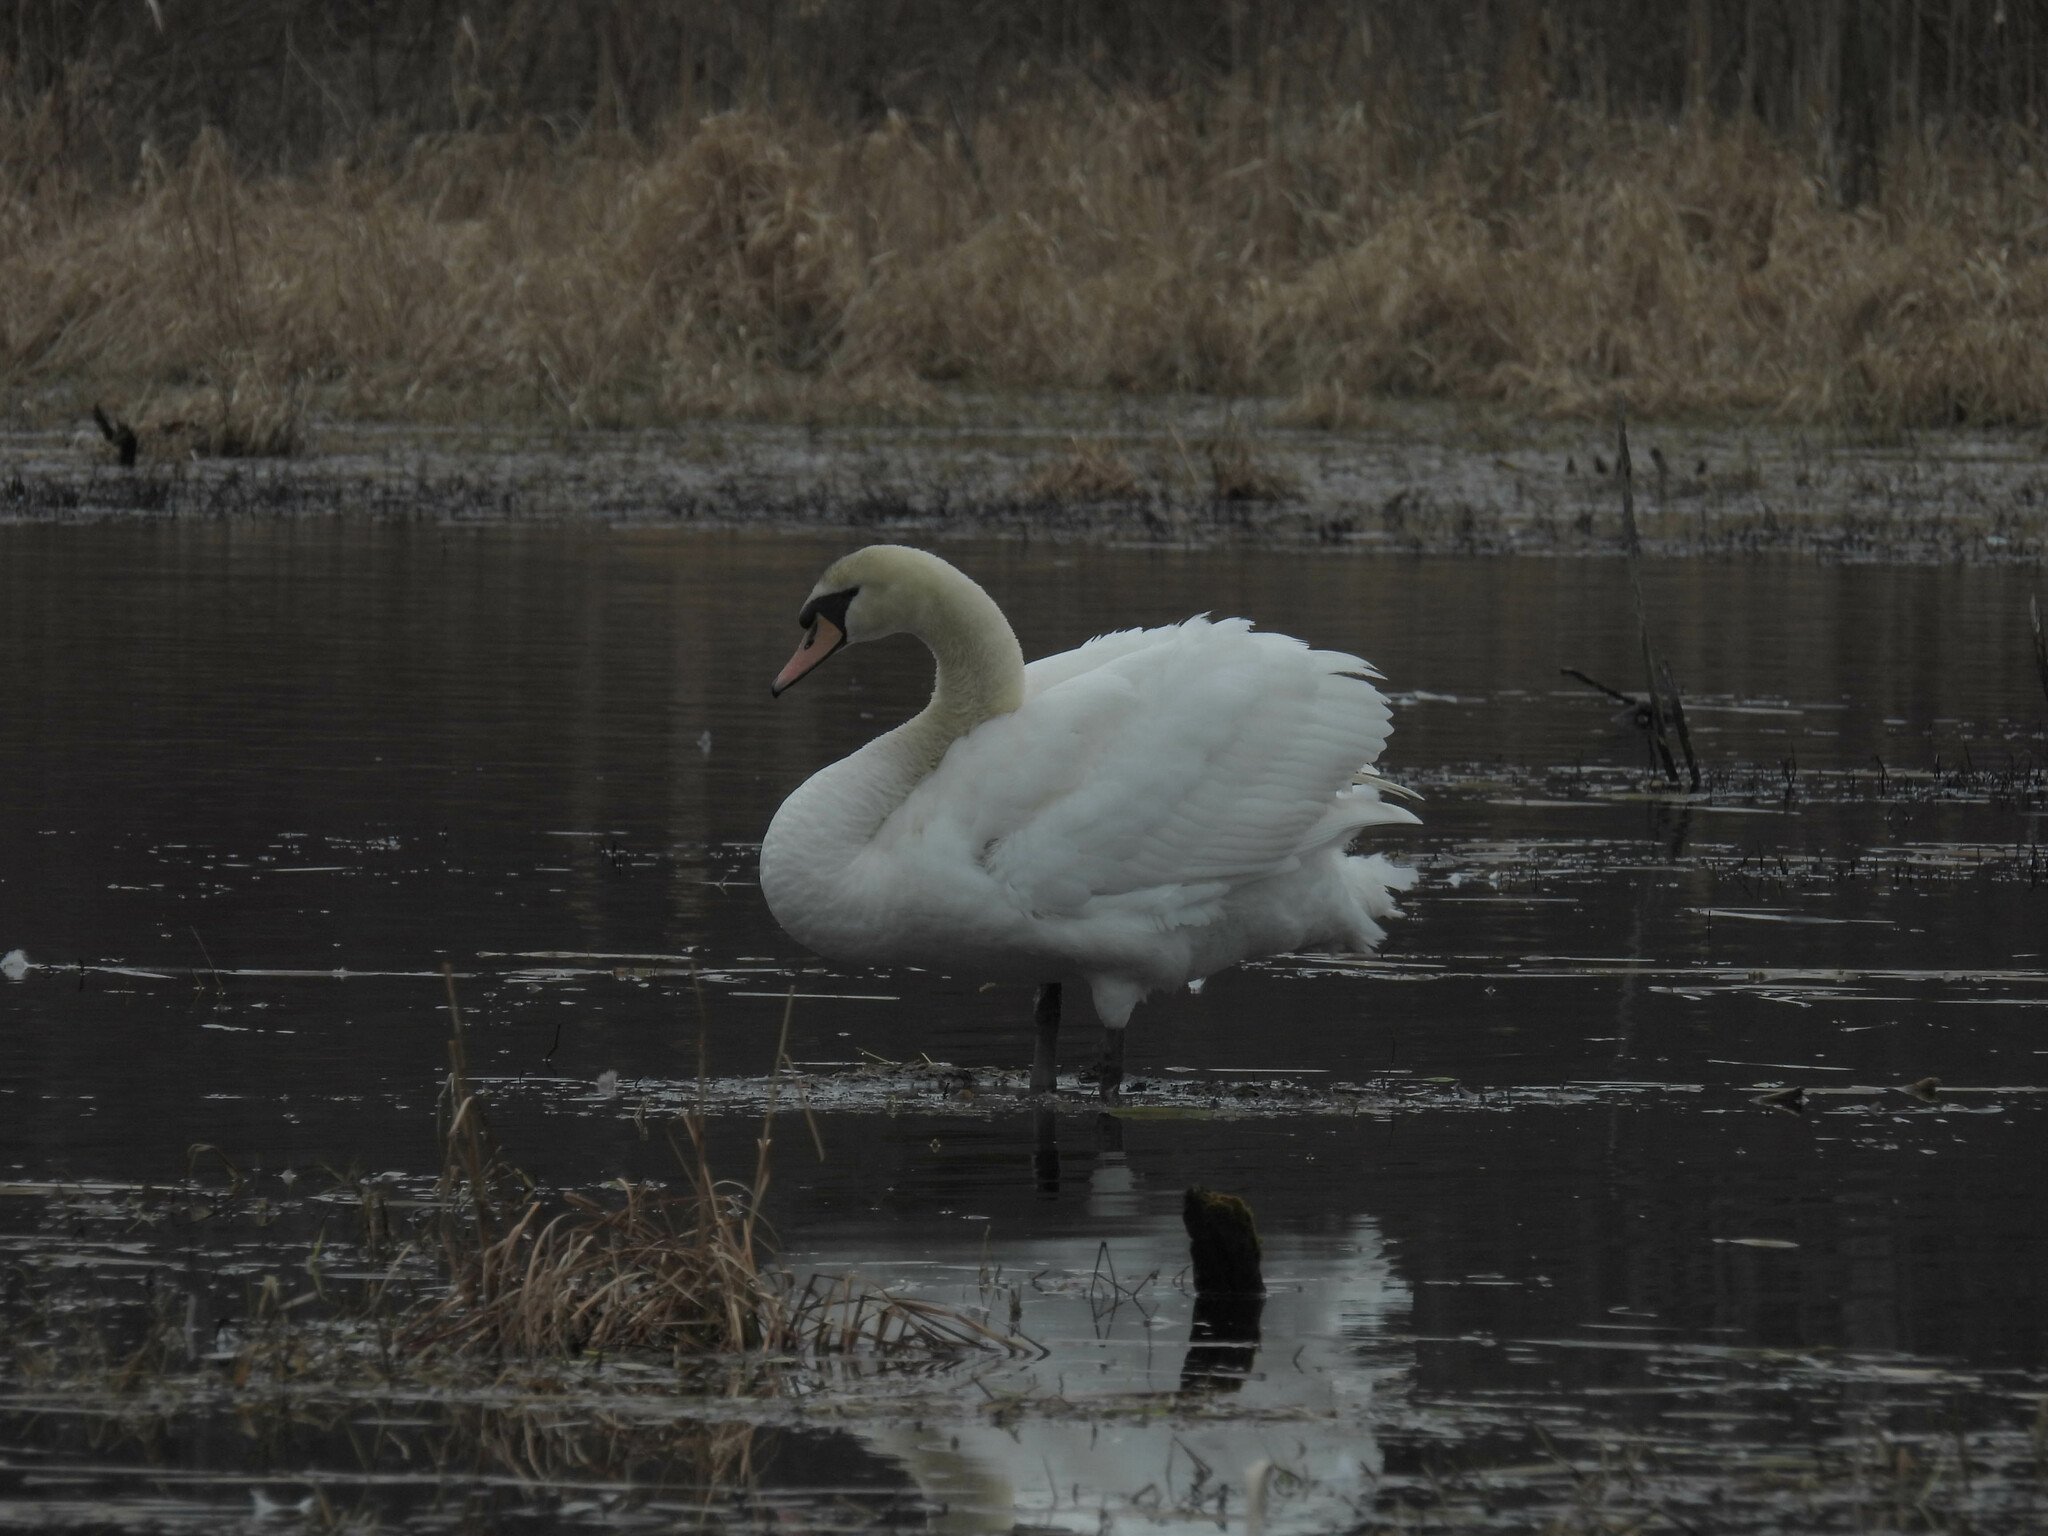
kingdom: Animalia
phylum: Chordata
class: Aves
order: Anseriformes
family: Anatidae
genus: Cygnus
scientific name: Cygnus olor
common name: Mute swan
